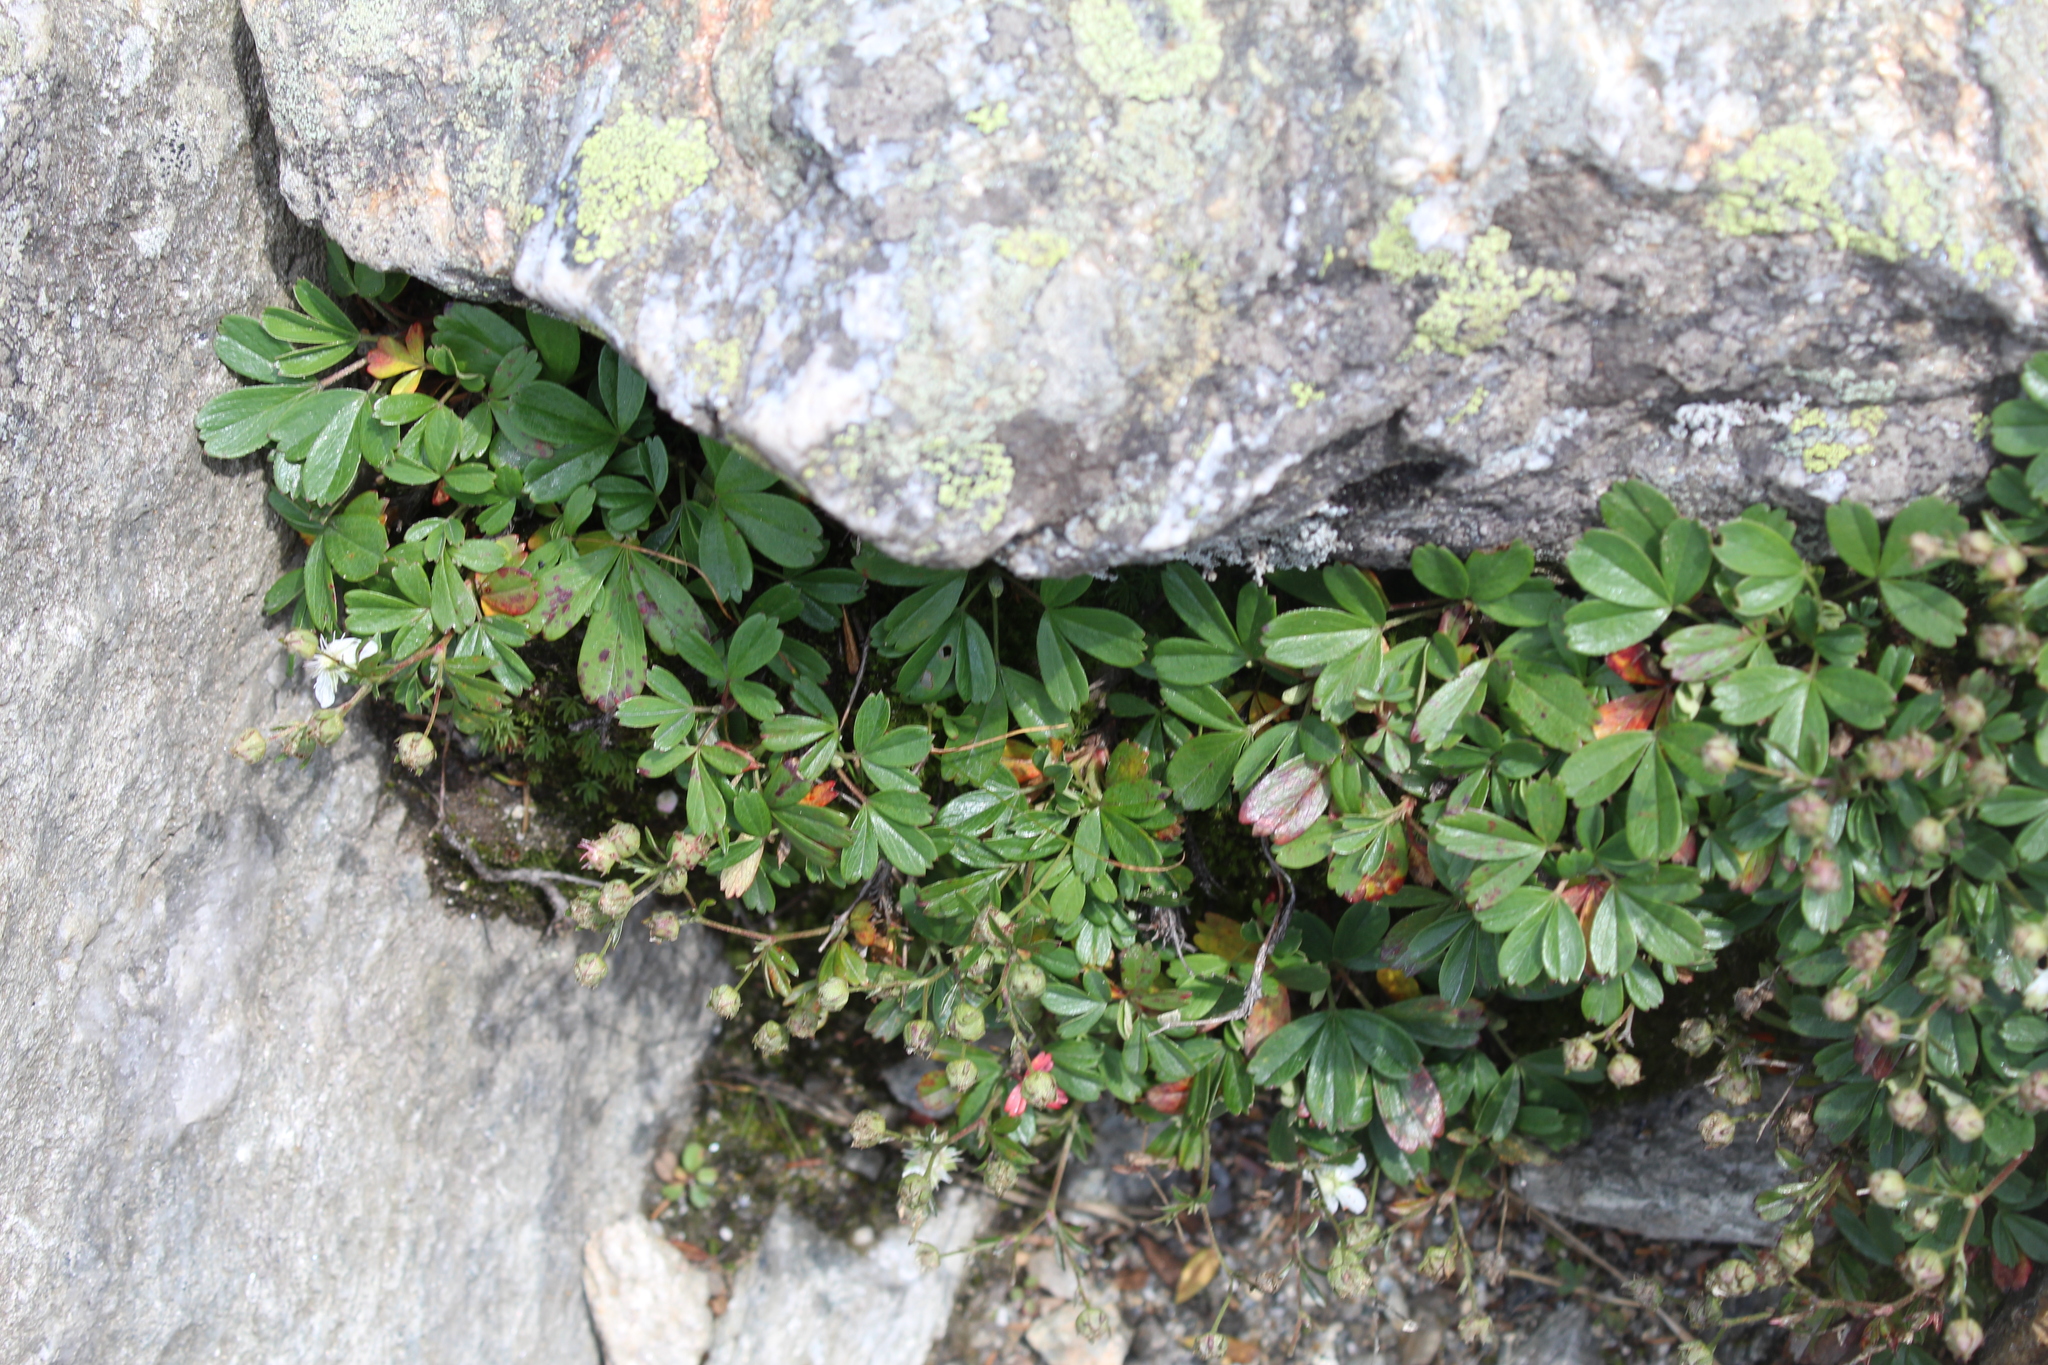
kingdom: Plantae
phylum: Tracheophyta
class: Magnoliopsida
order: Rosales
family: Rosaceae
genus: Sibbaldia
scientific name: Sibbaldia tridentata
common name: Three-toothed cinquefoil
